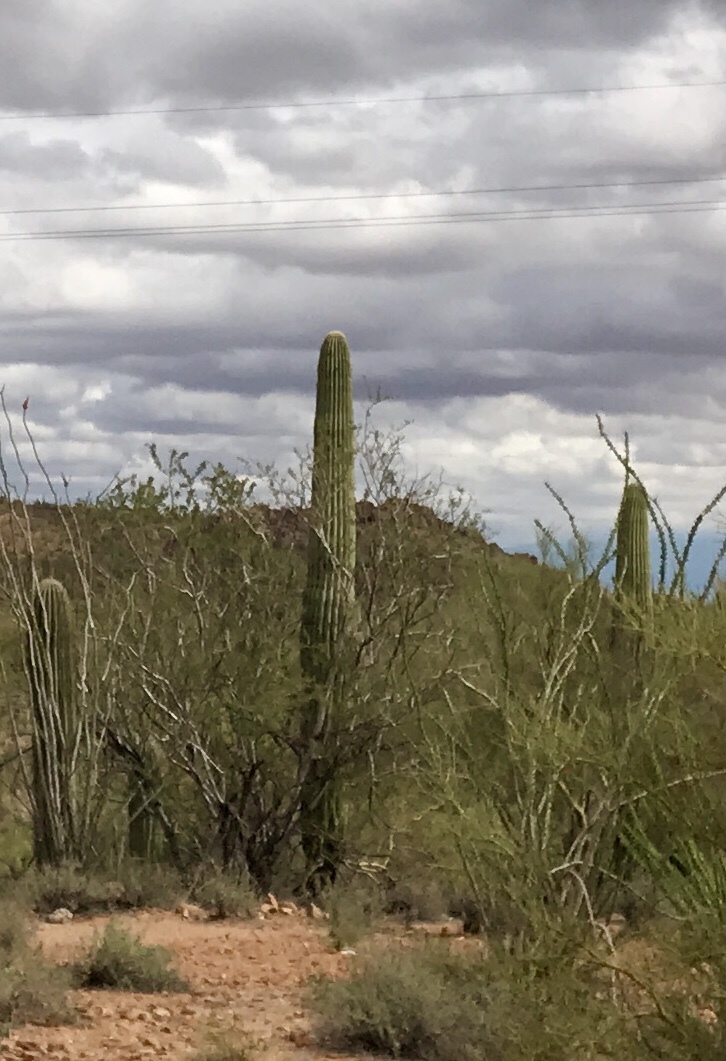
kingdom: Plantae
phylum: Tracheophyta
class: Magnoliopsida
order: Caryophyllales
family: Cactaceae
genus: Carnegiea
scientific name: Carnegiea gigantea
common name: Saguaro
